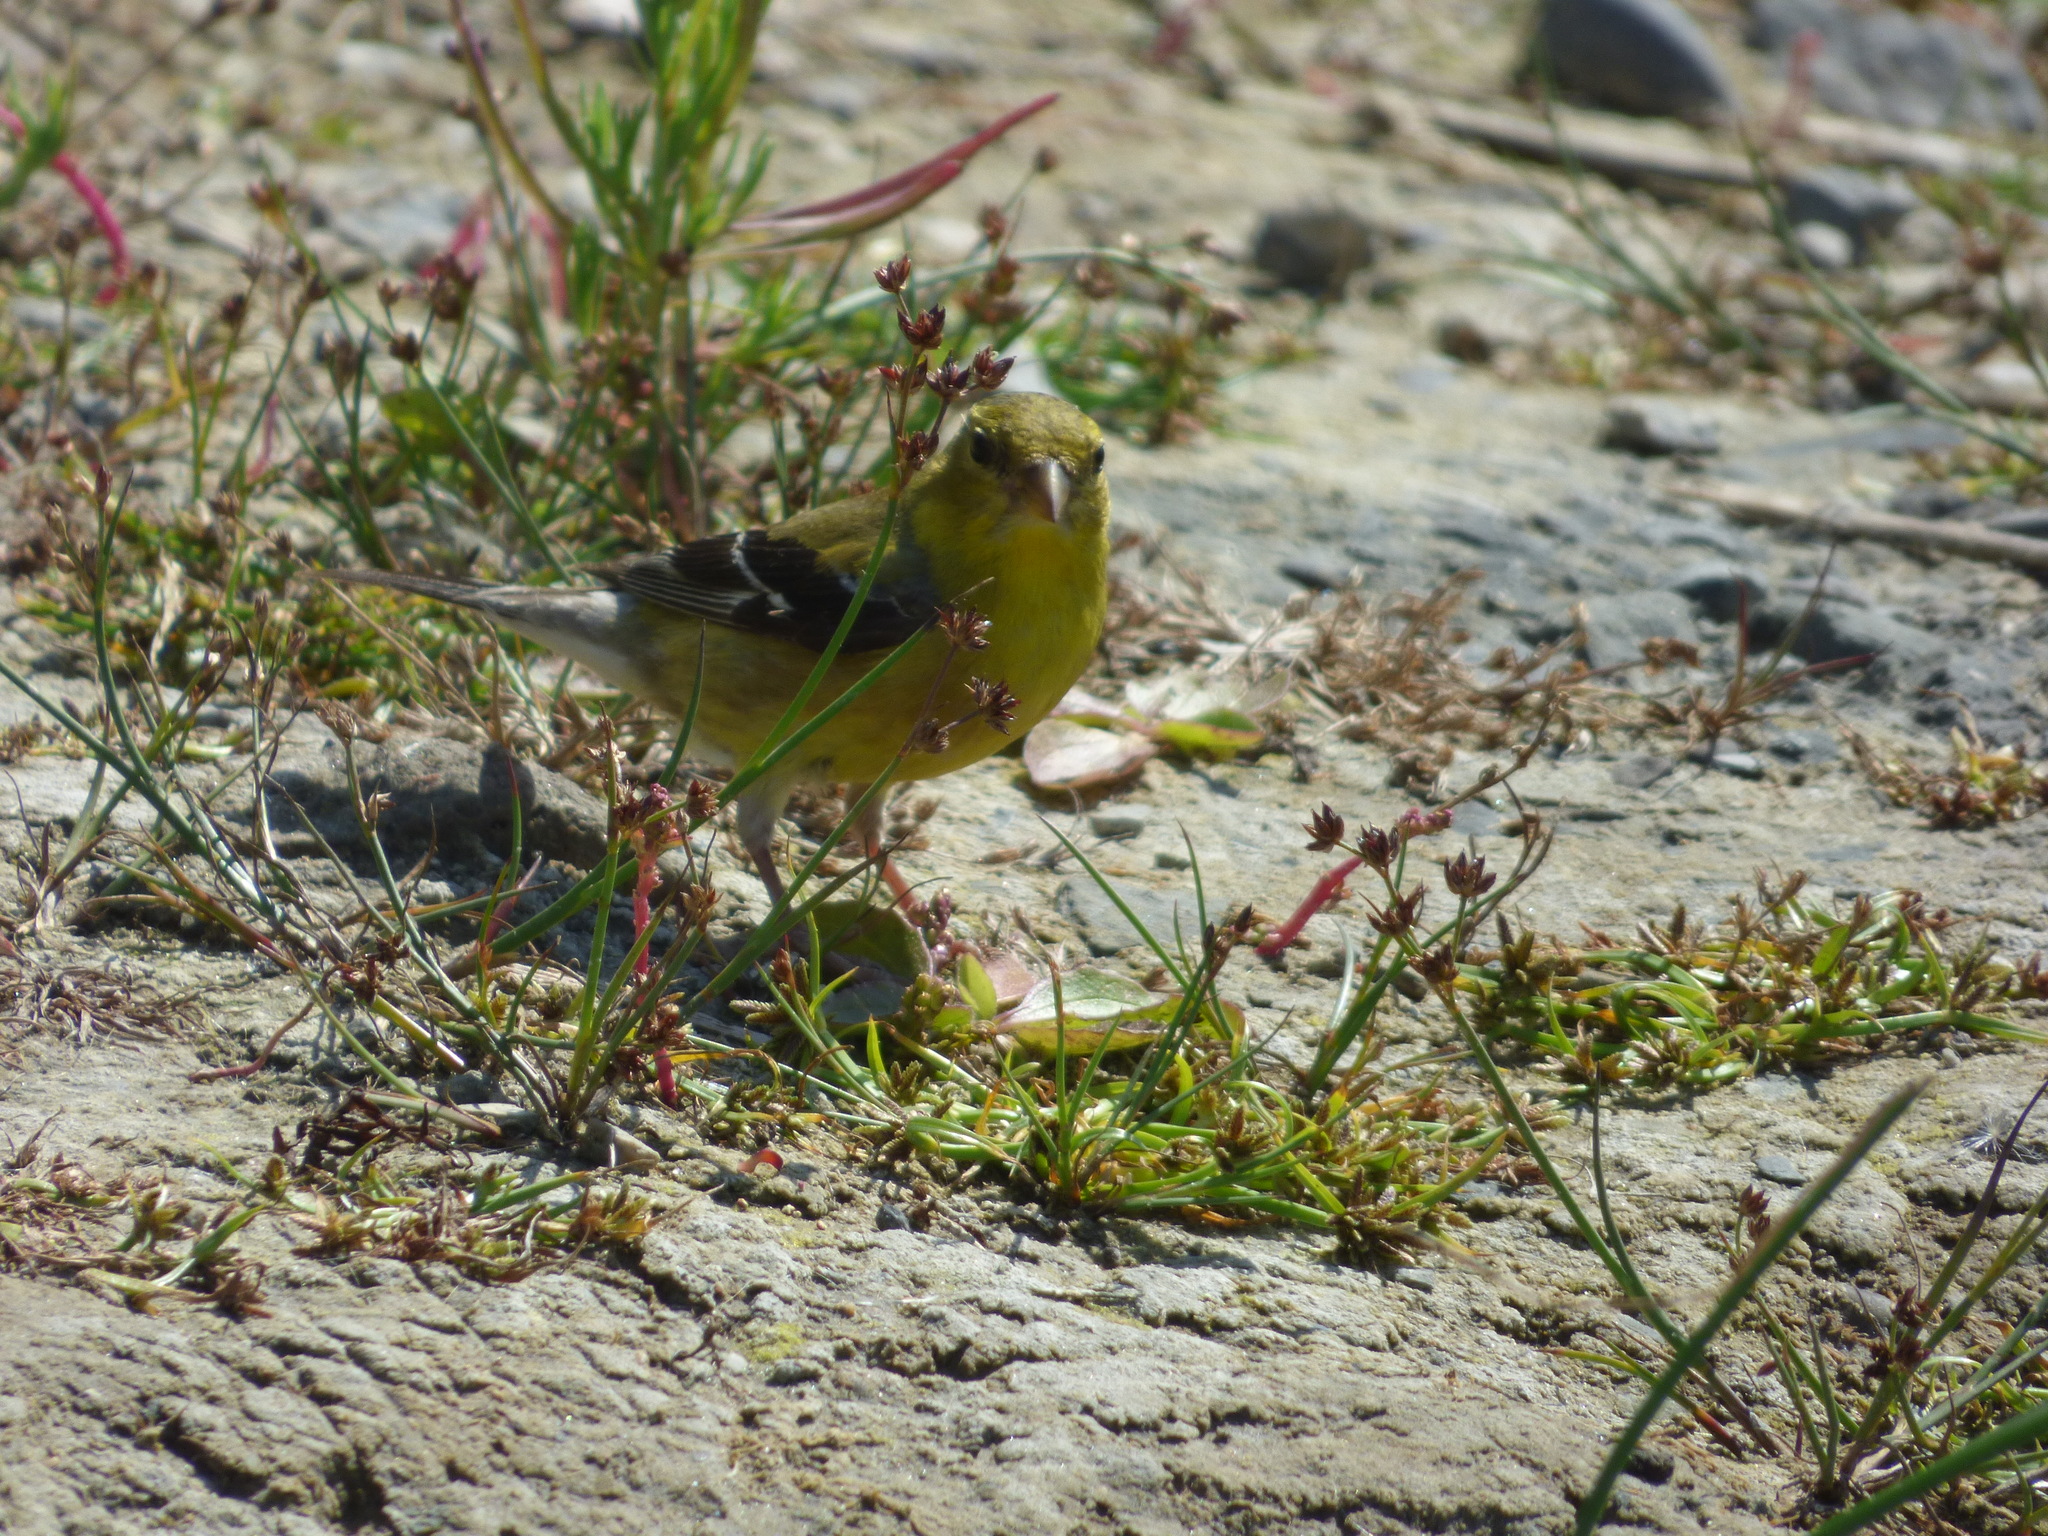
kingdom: Animalia
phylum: Chordata
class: Aves
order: Passeriformes
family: Fringillidae
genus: Spinus
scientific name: Spinus tristis
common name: American goldfinch
